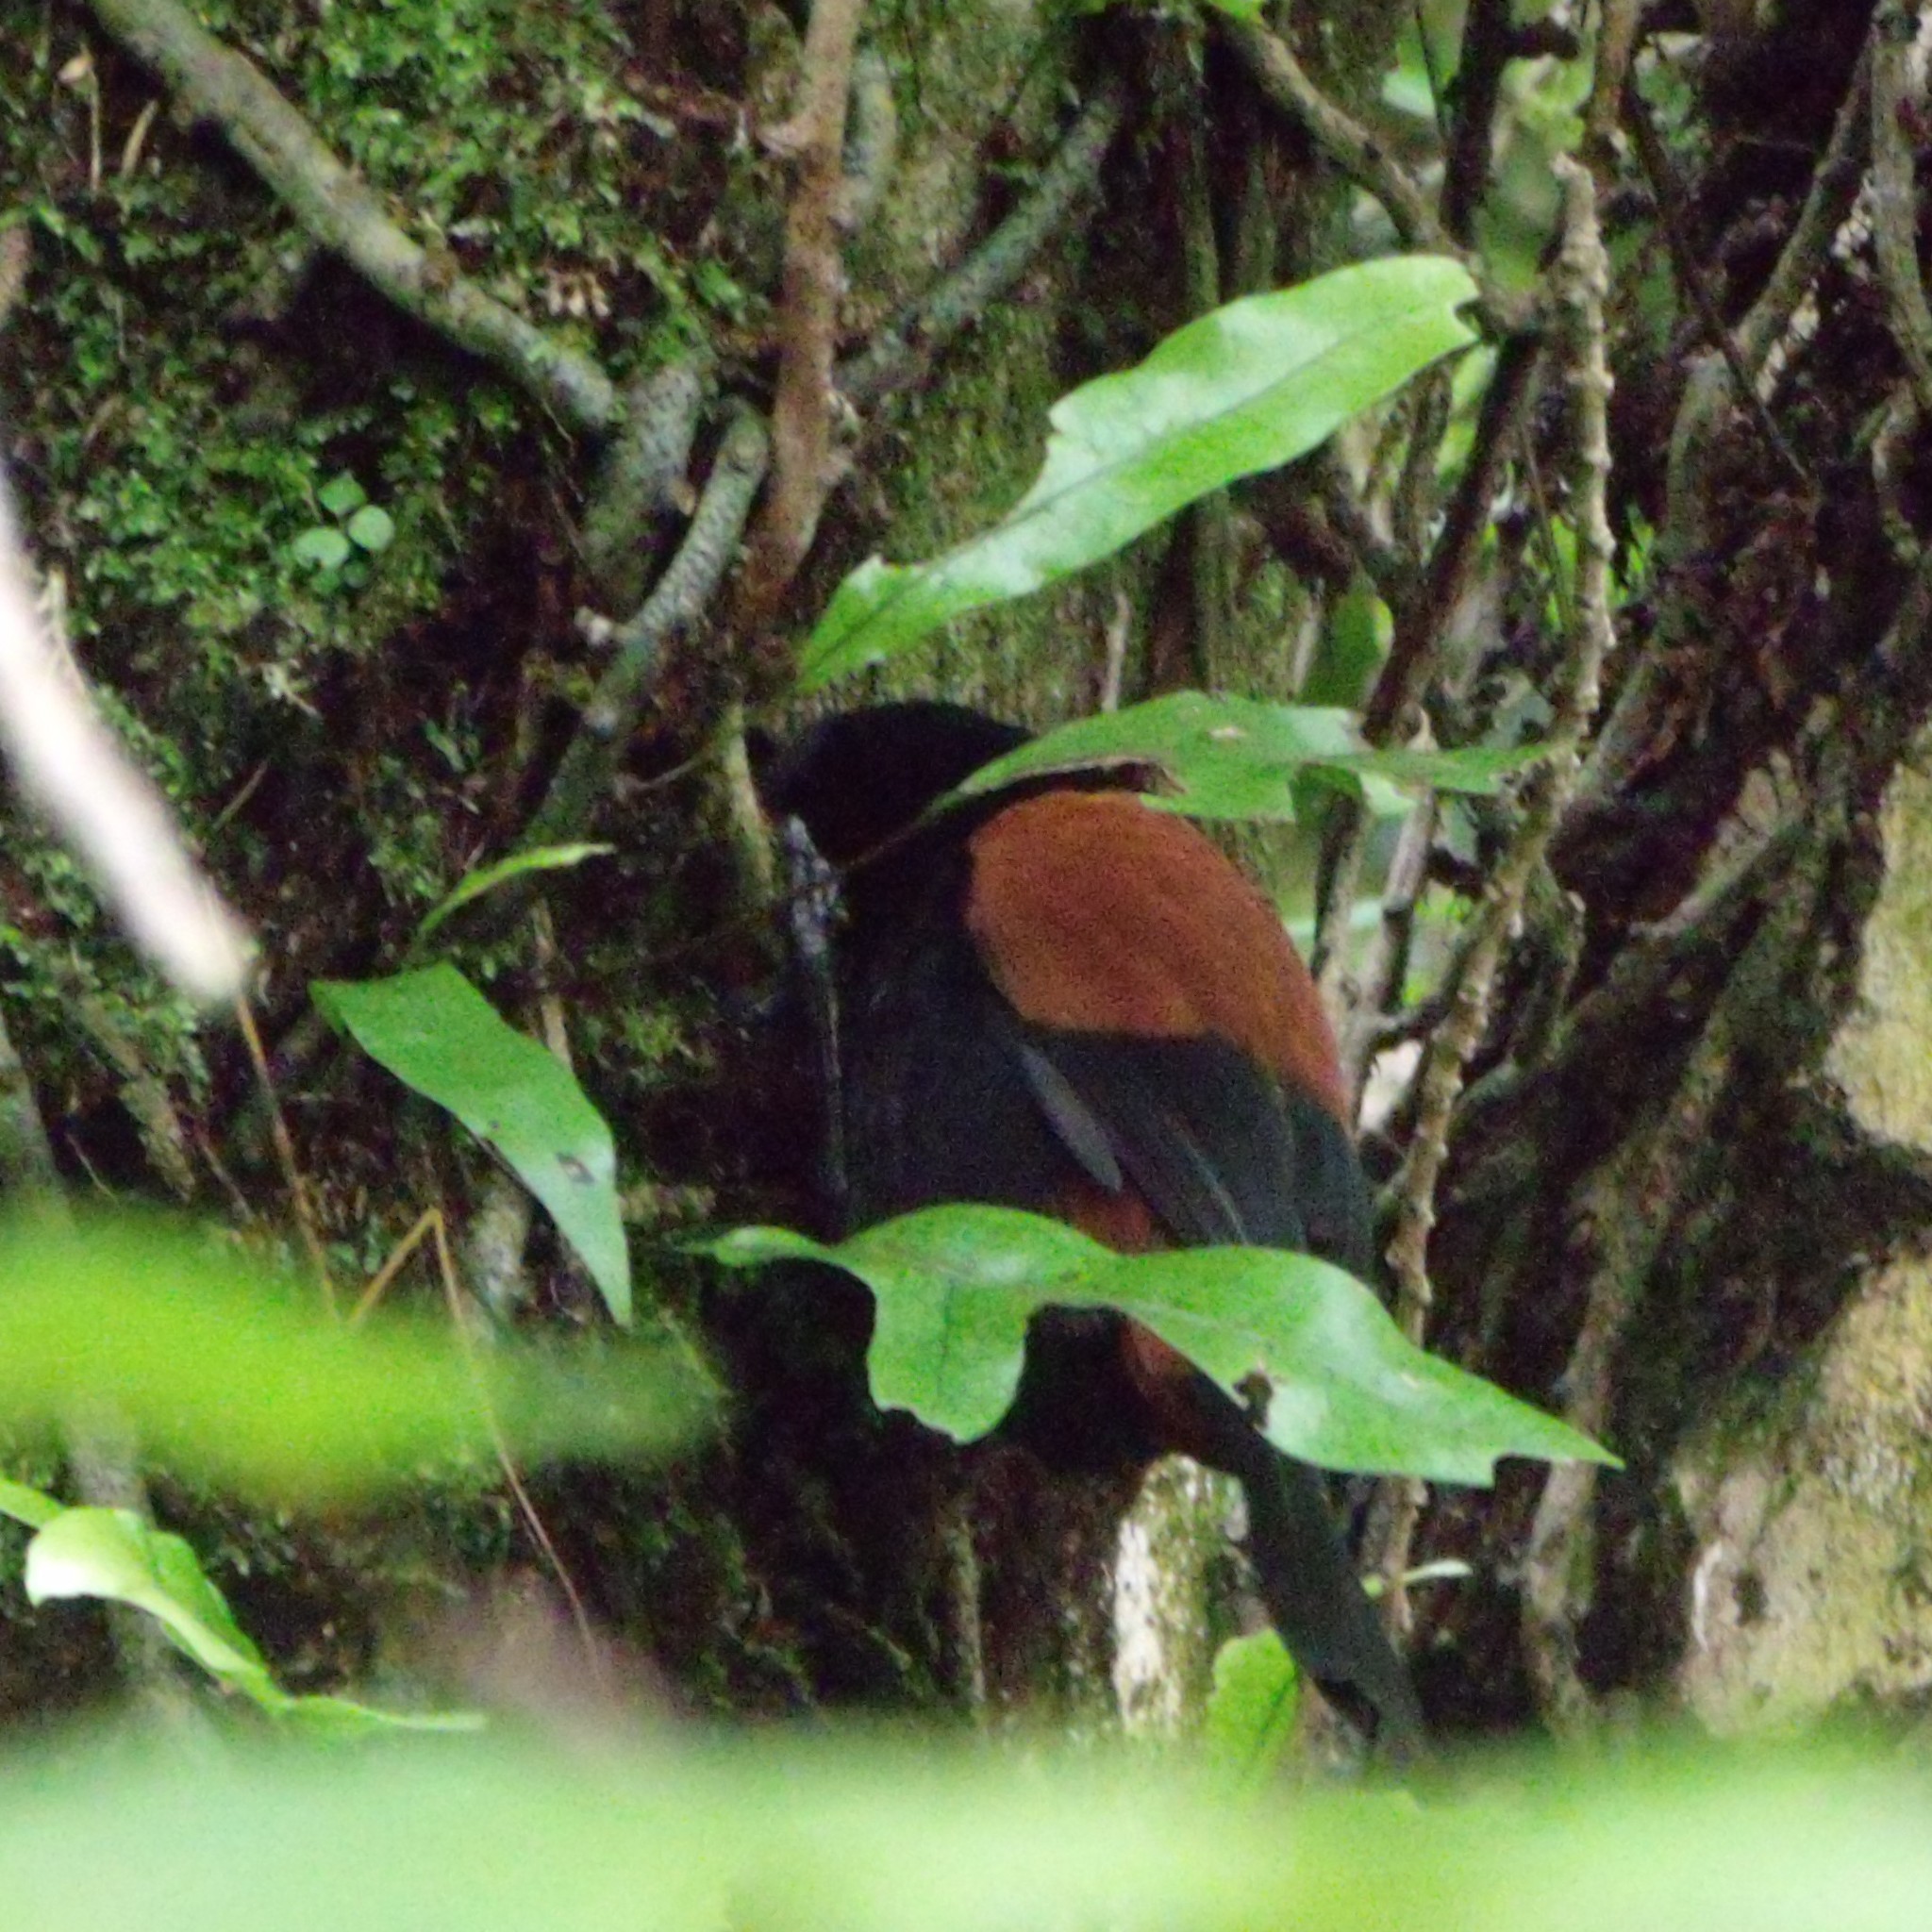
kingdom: Animalia
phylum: Chordata
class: Aves
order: Passeriformes
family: Callaeatidae
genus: Philesturnus
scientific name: Philesturnus carunculatus
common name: South island saddleback
